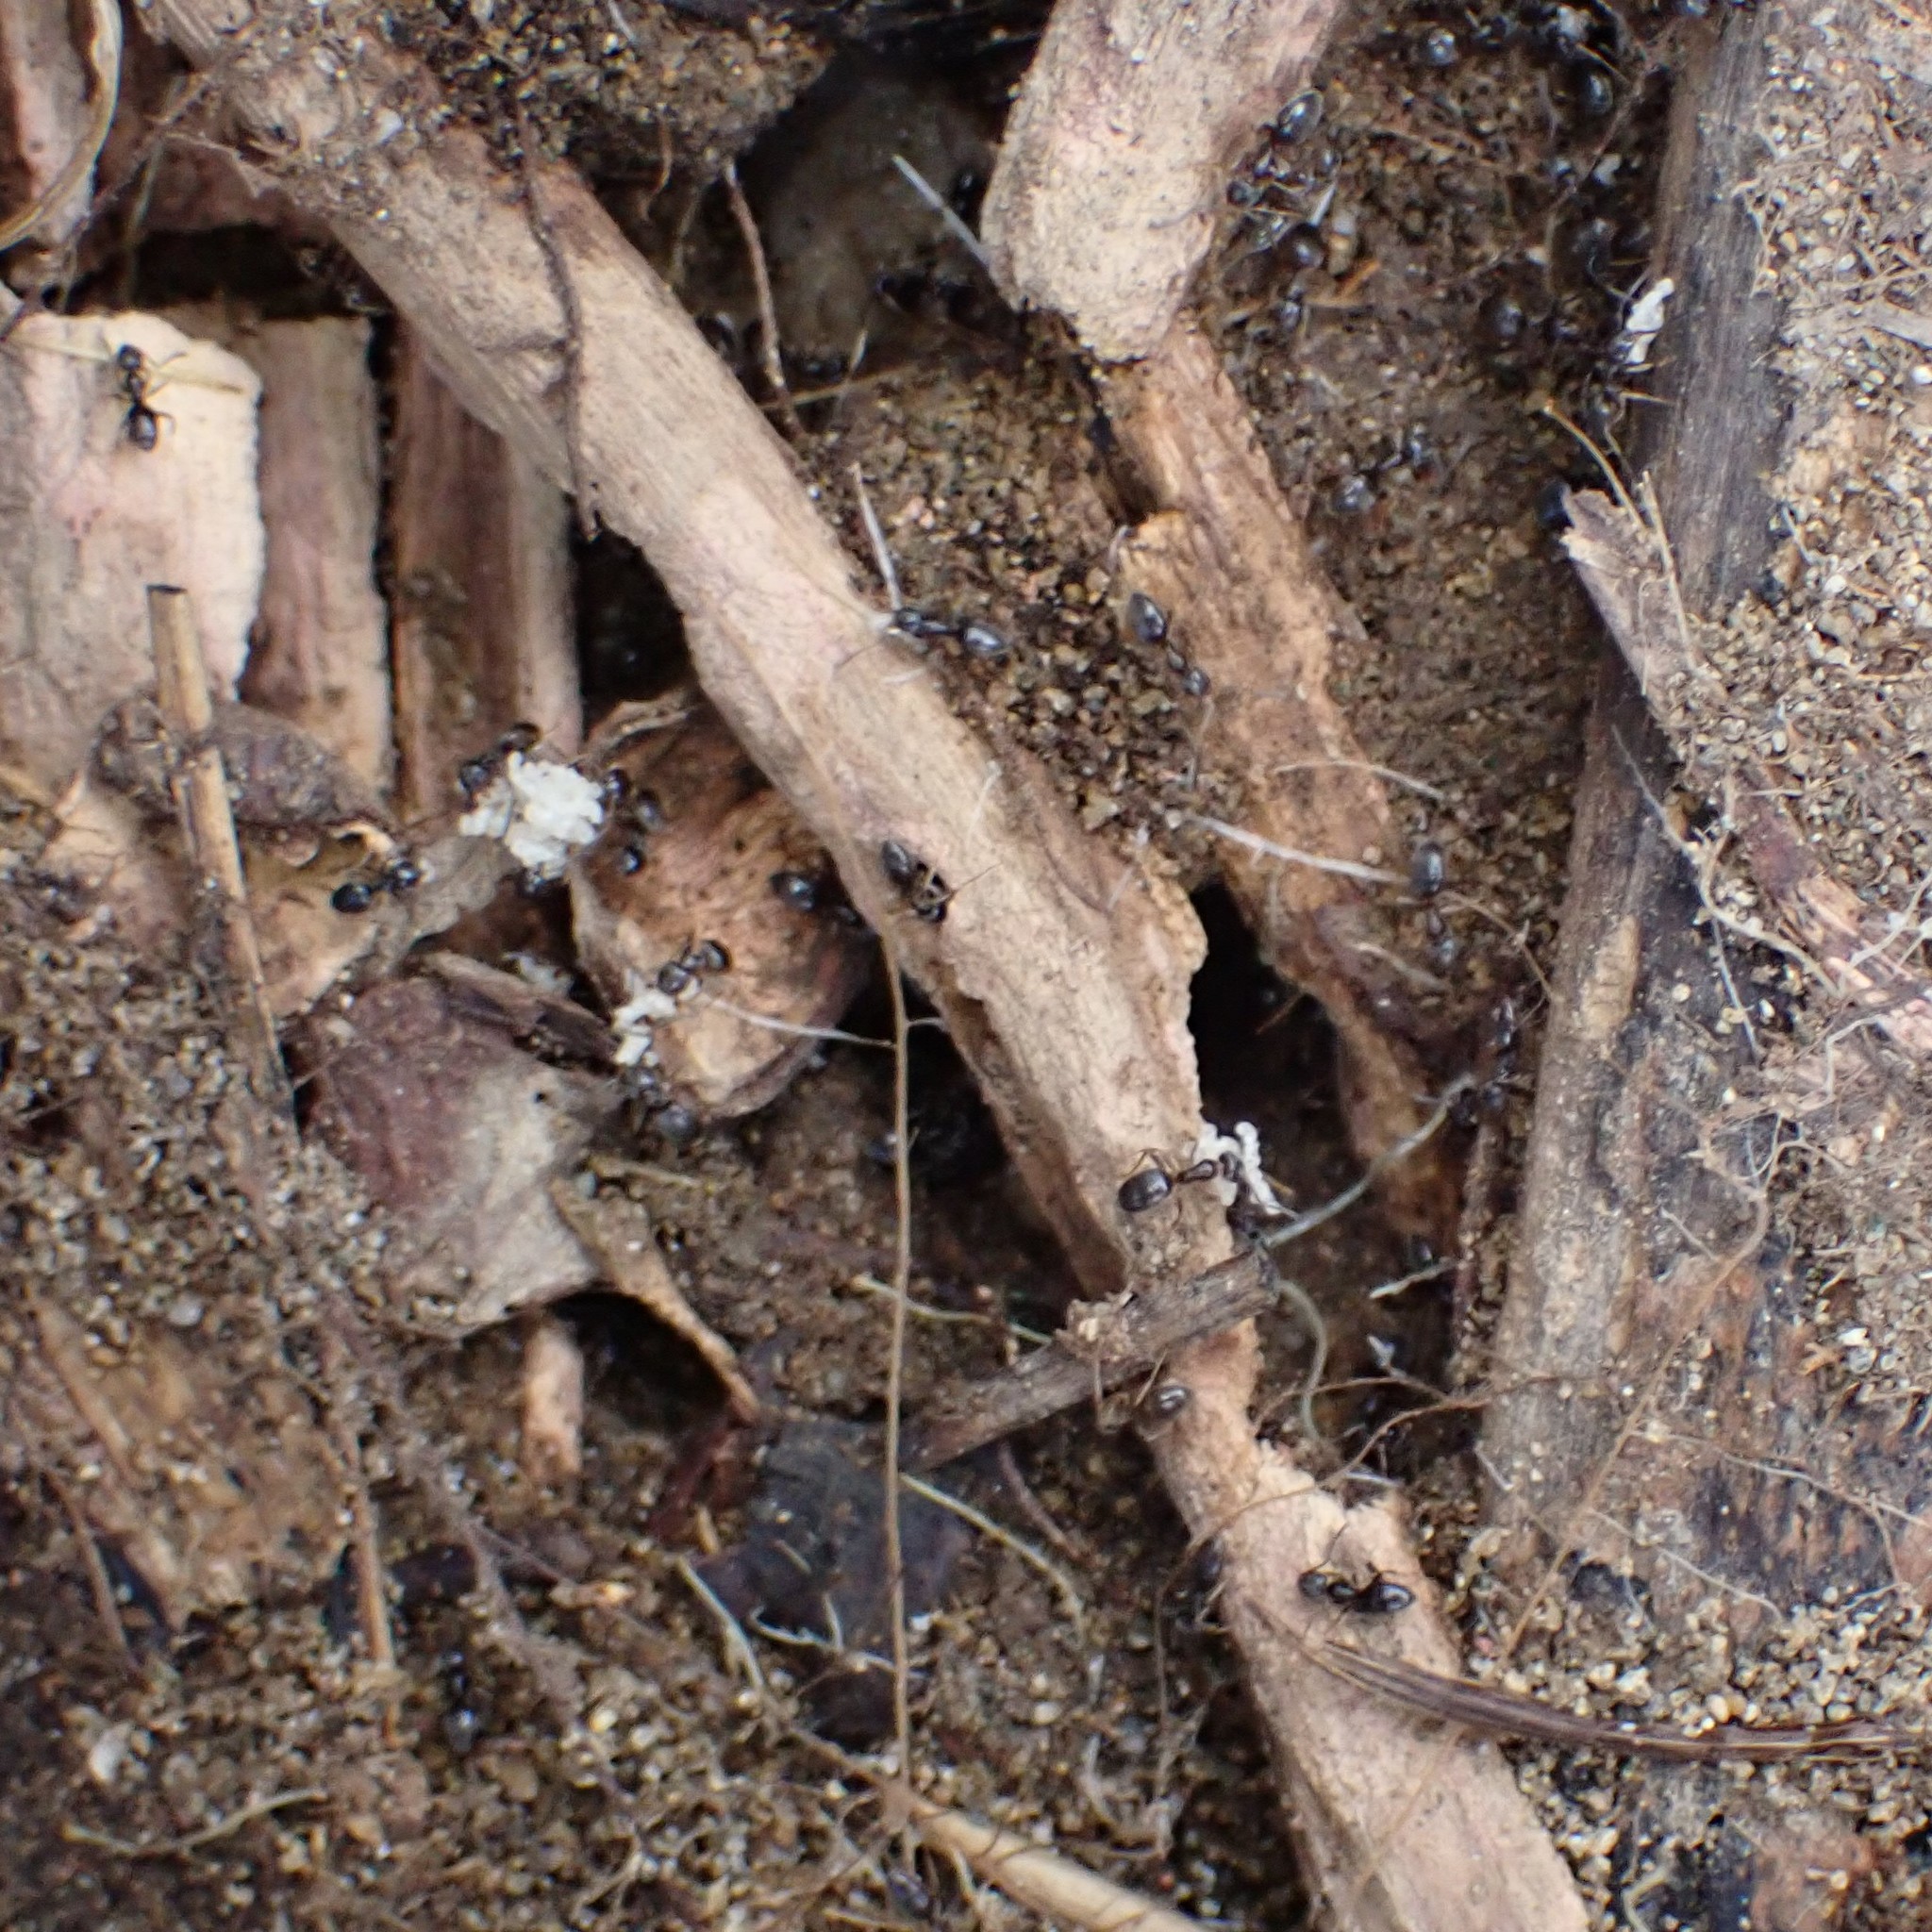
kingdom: Animalia
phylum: Arthropoda
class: Insecta
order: Hymenoptera
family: Formicidae
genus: Tapinoma
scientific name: Tapinoma sessile
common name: Odorous house ant
